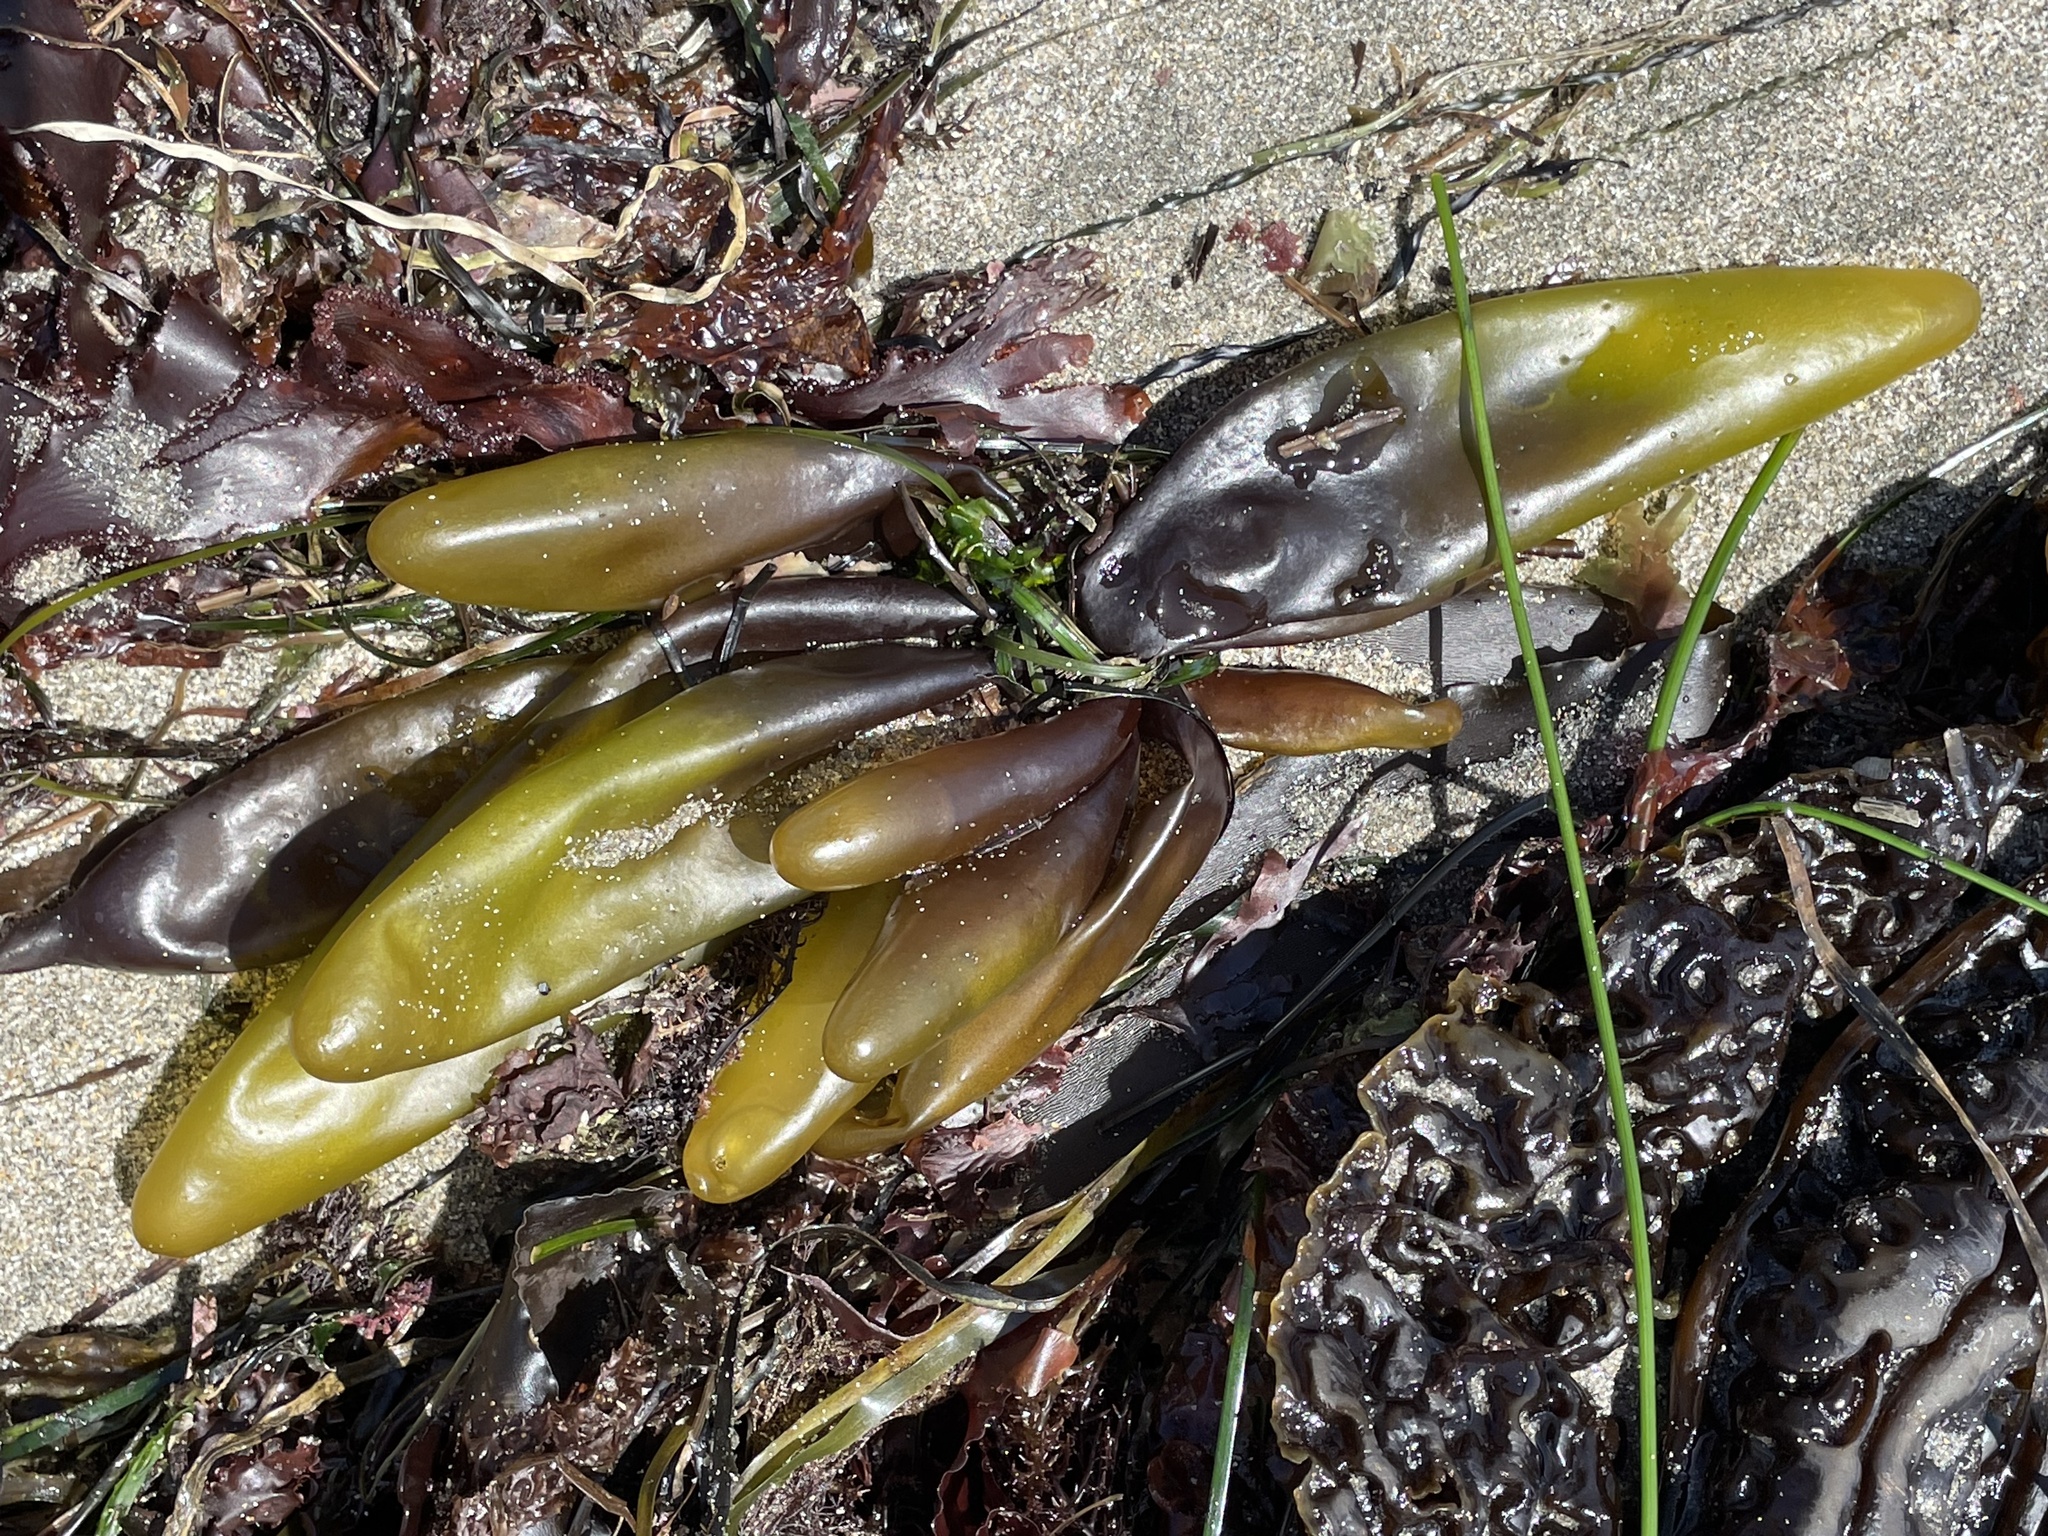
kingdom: Plantae
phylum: Rhodophyta
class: Florideophyceae
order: Palmariales
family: Palmariaceae
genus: Halosaccion
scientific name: Halosaccion glandiforme
